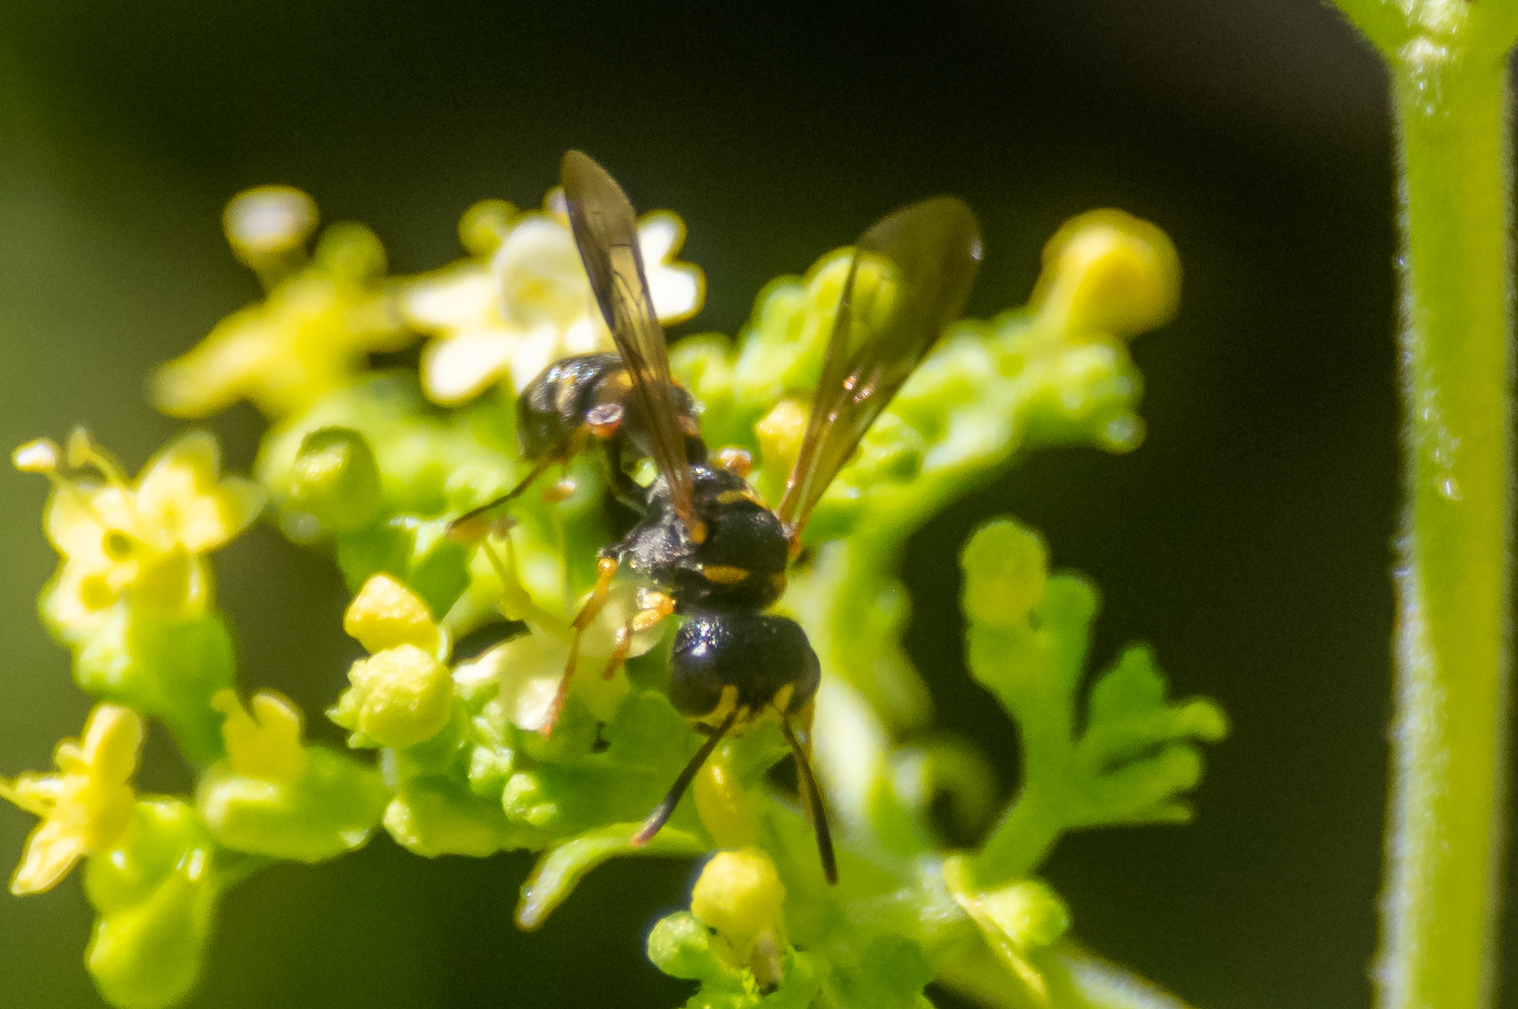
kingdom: Animalia
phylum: Arthropoda
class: Insecta
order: Hymenoptera
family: Crabronidae
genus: Cerceris
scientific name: Cerceris kennicottii
